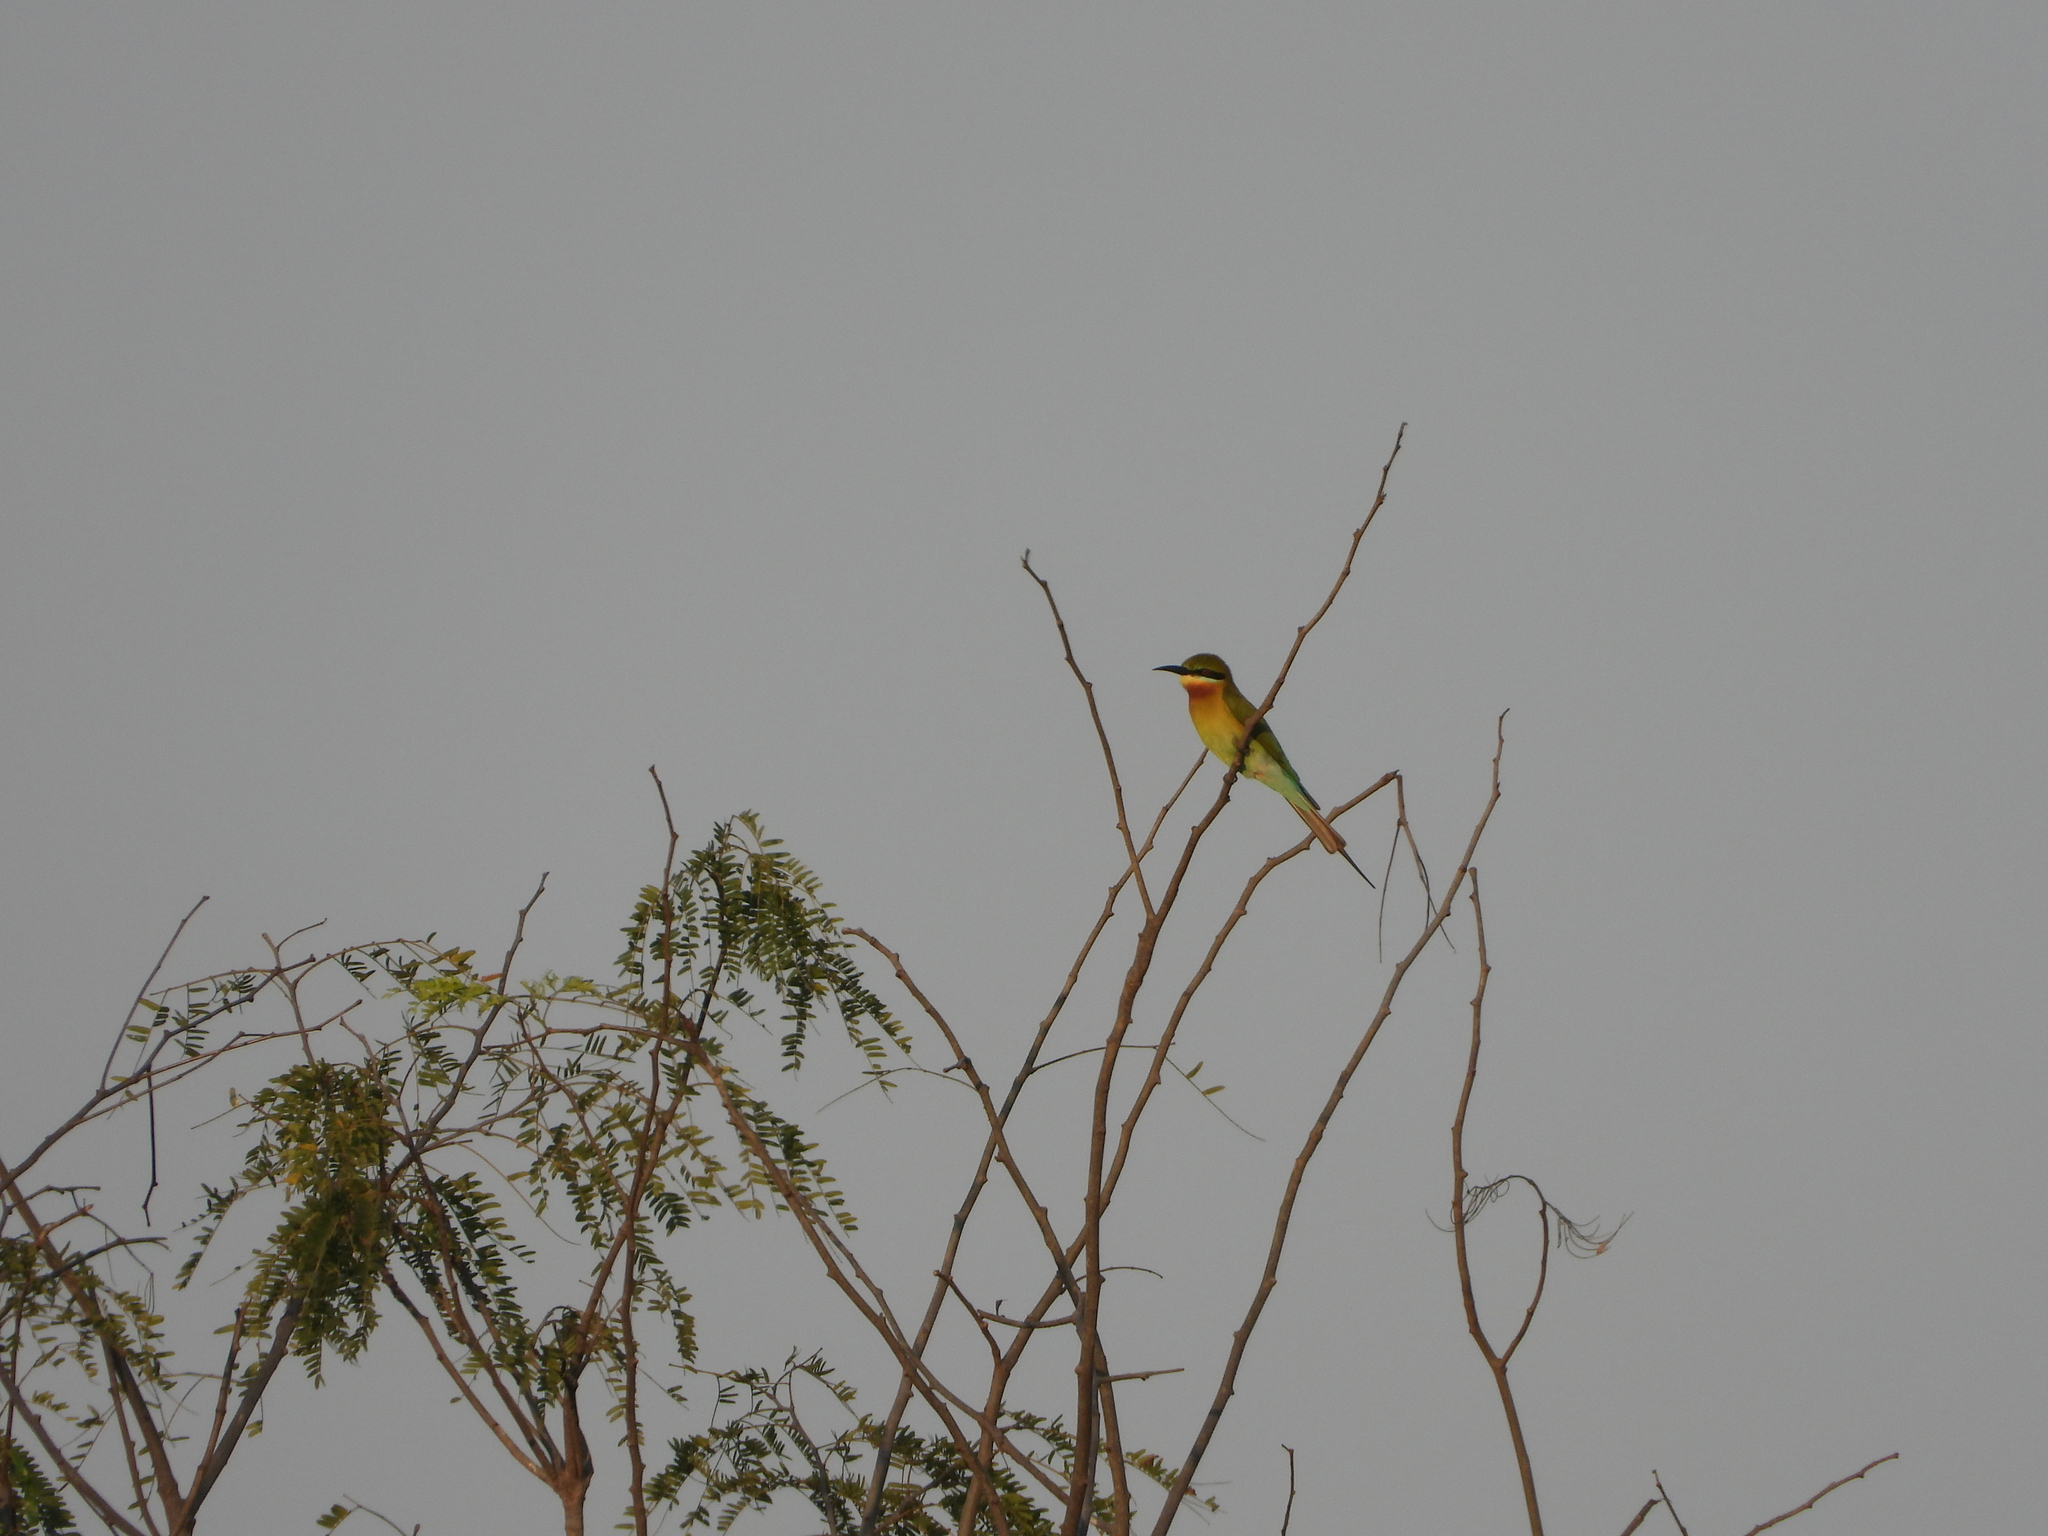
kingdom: Animalia
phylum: Chordata
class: Aves
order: Coraciiformes
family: Meropidae
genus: Merops
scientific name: Merops philippinus
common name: Blue-tailed bee-eater
